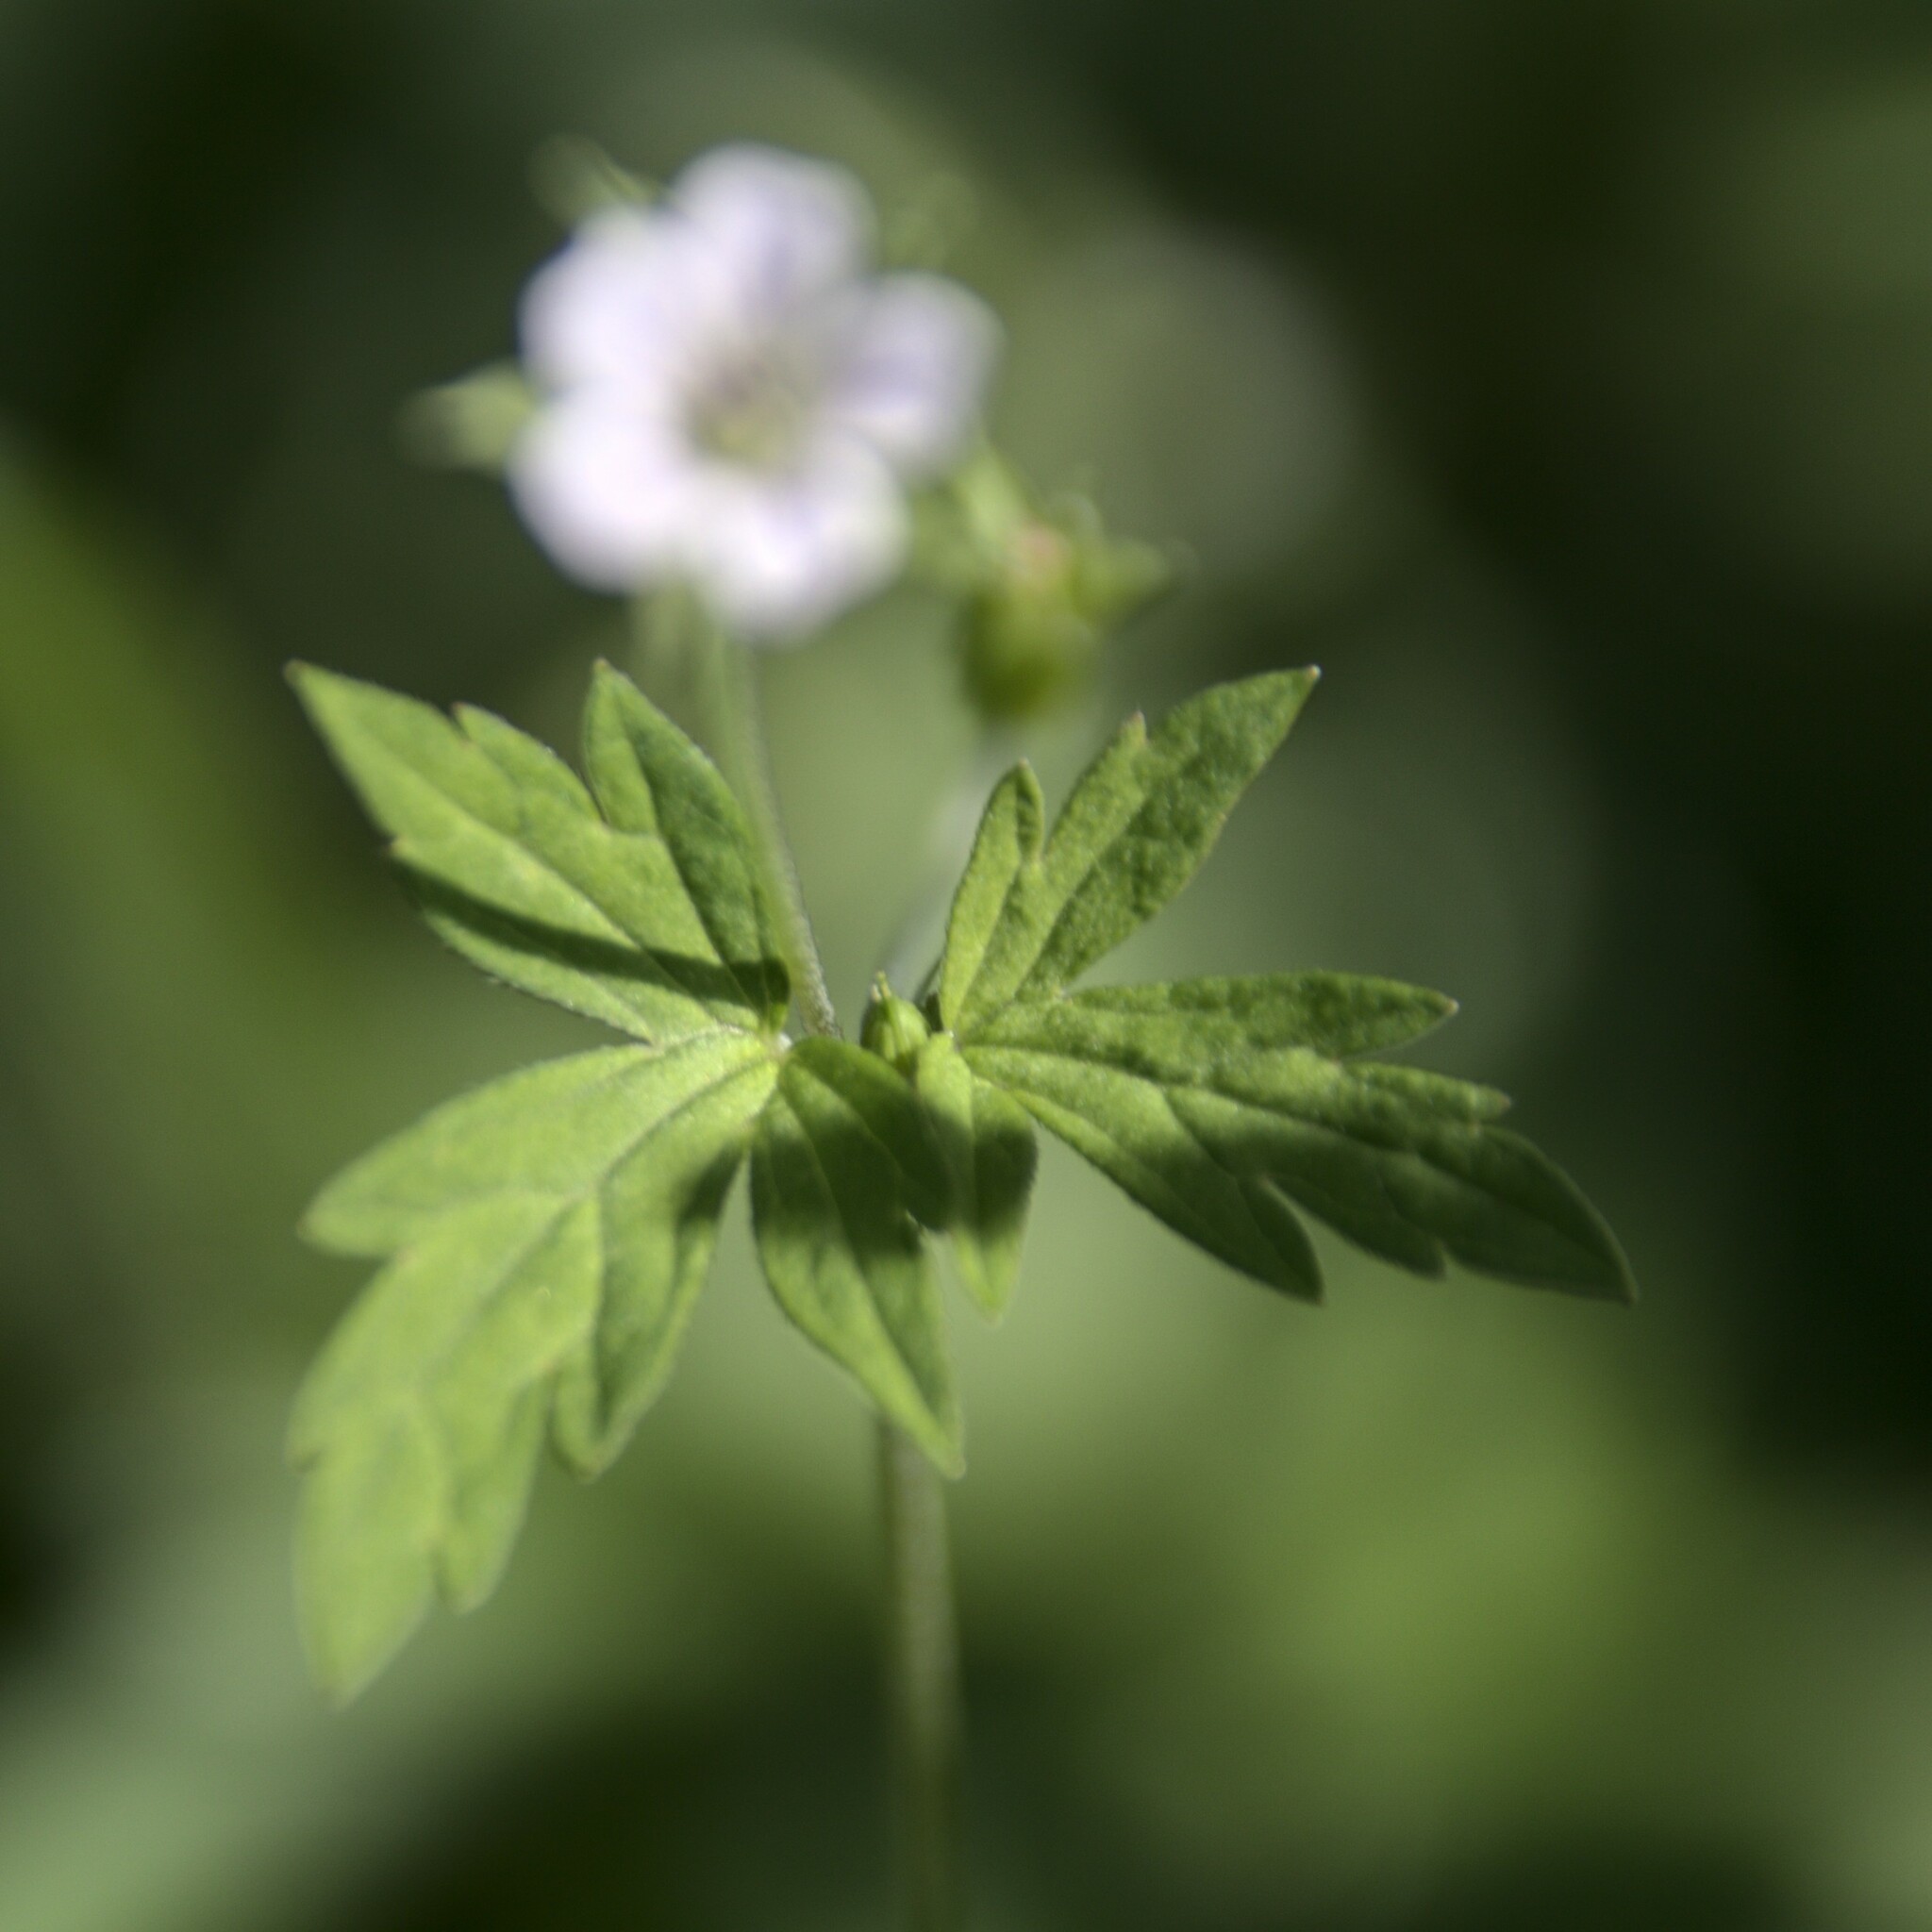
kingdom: Plantae
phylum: Tracheophyta
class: Magnoliopsida
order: Geraniales
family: Geraniaceae
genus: Geranium
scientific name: Geranium sibiricum
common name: Siberian crane's-bill
